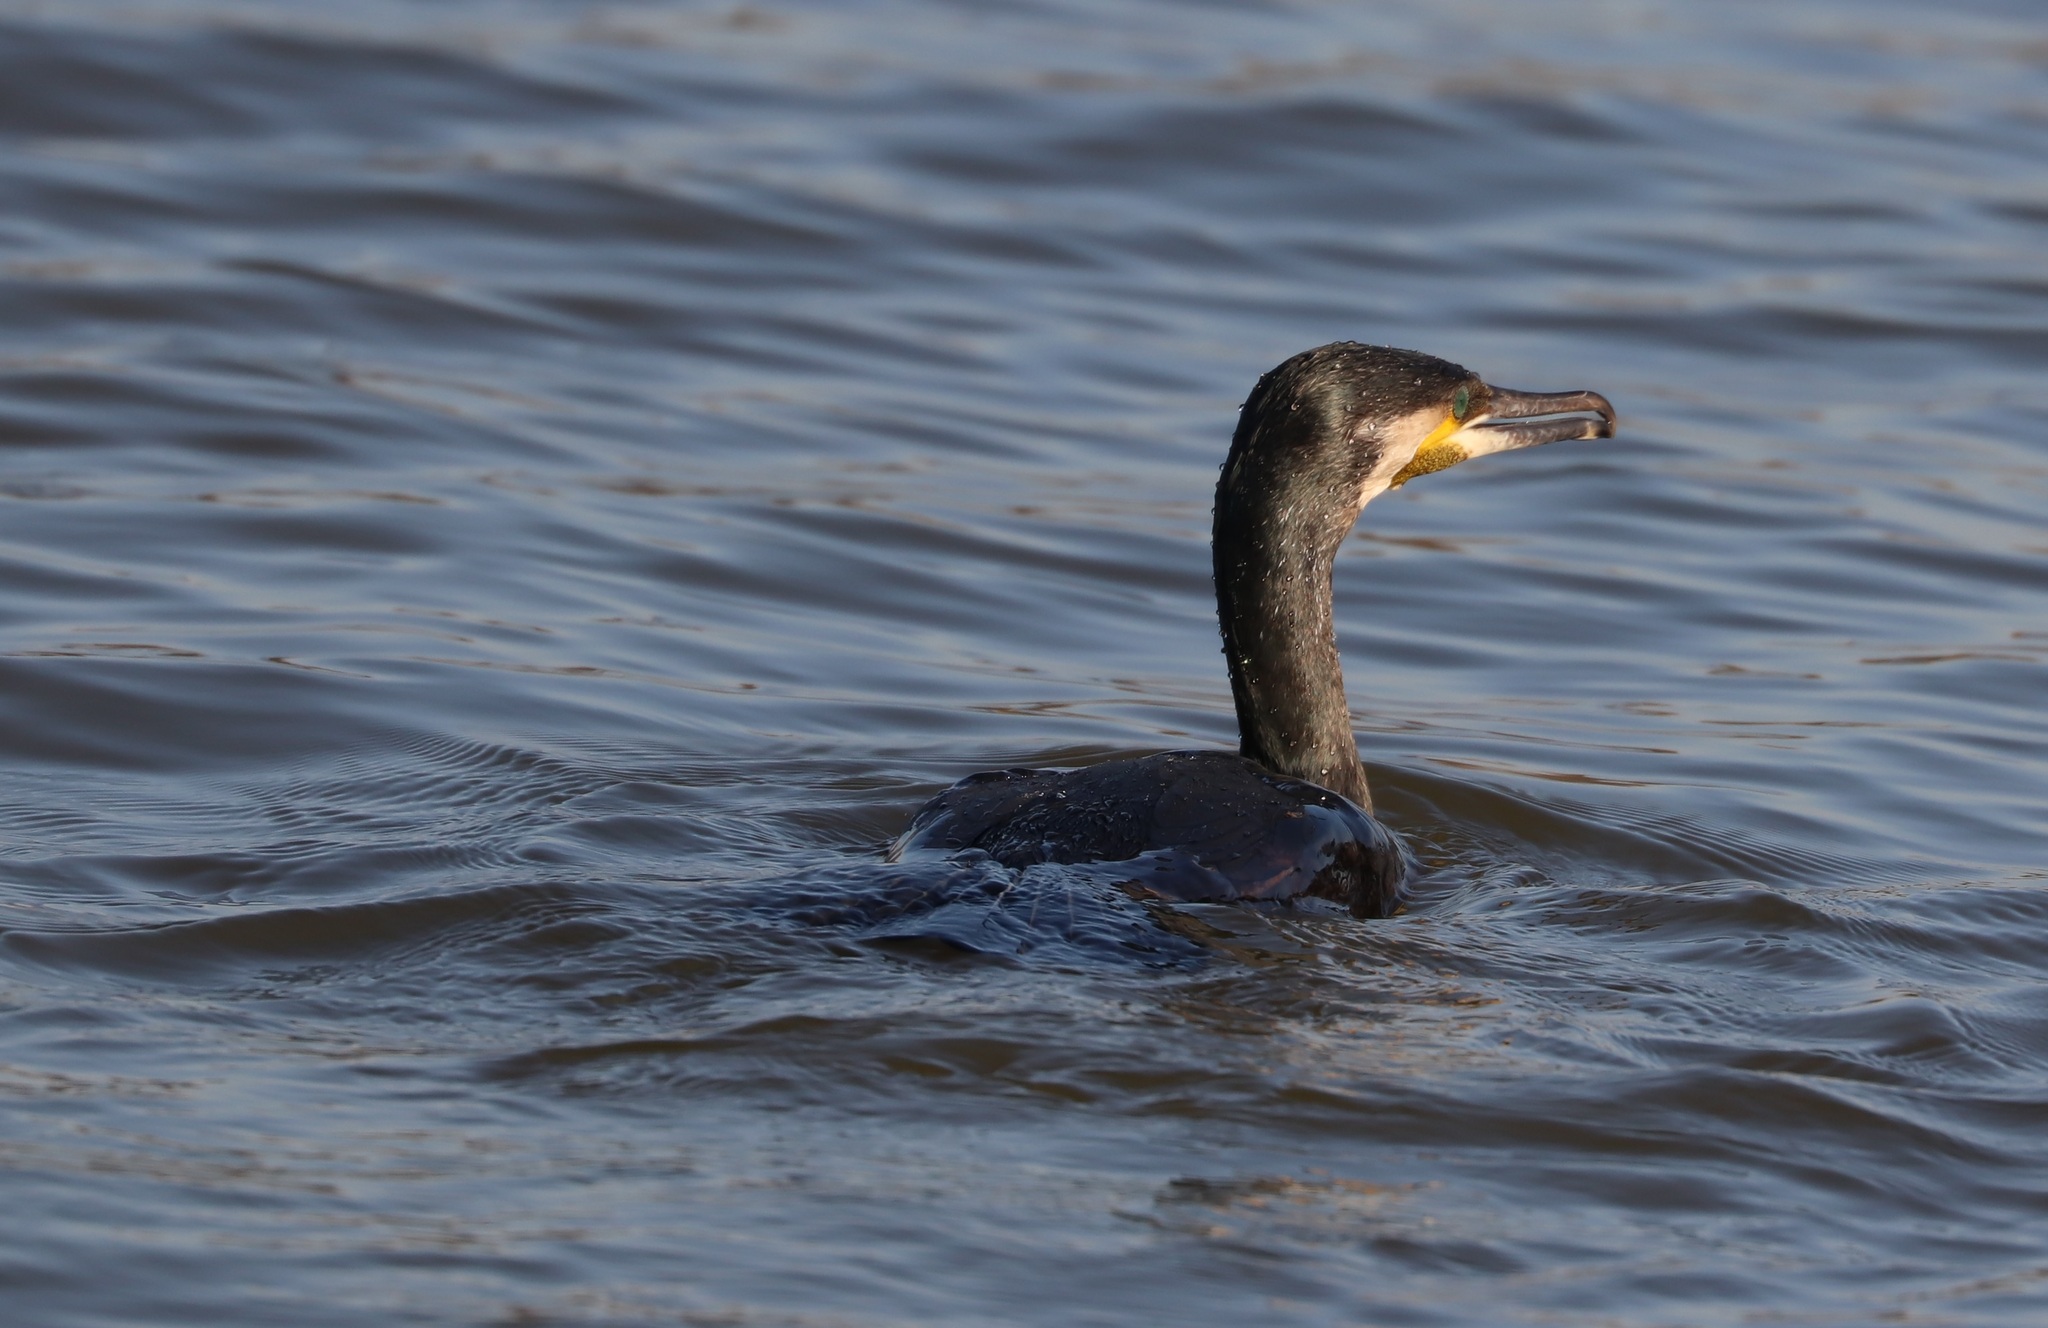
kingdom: Animalia
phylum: Chordata
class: Aves
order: Suliformes
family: Phalacrocoracidae
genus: Phalacrocorax
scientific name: Phalacrocorax carbo
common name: Great cormorant
